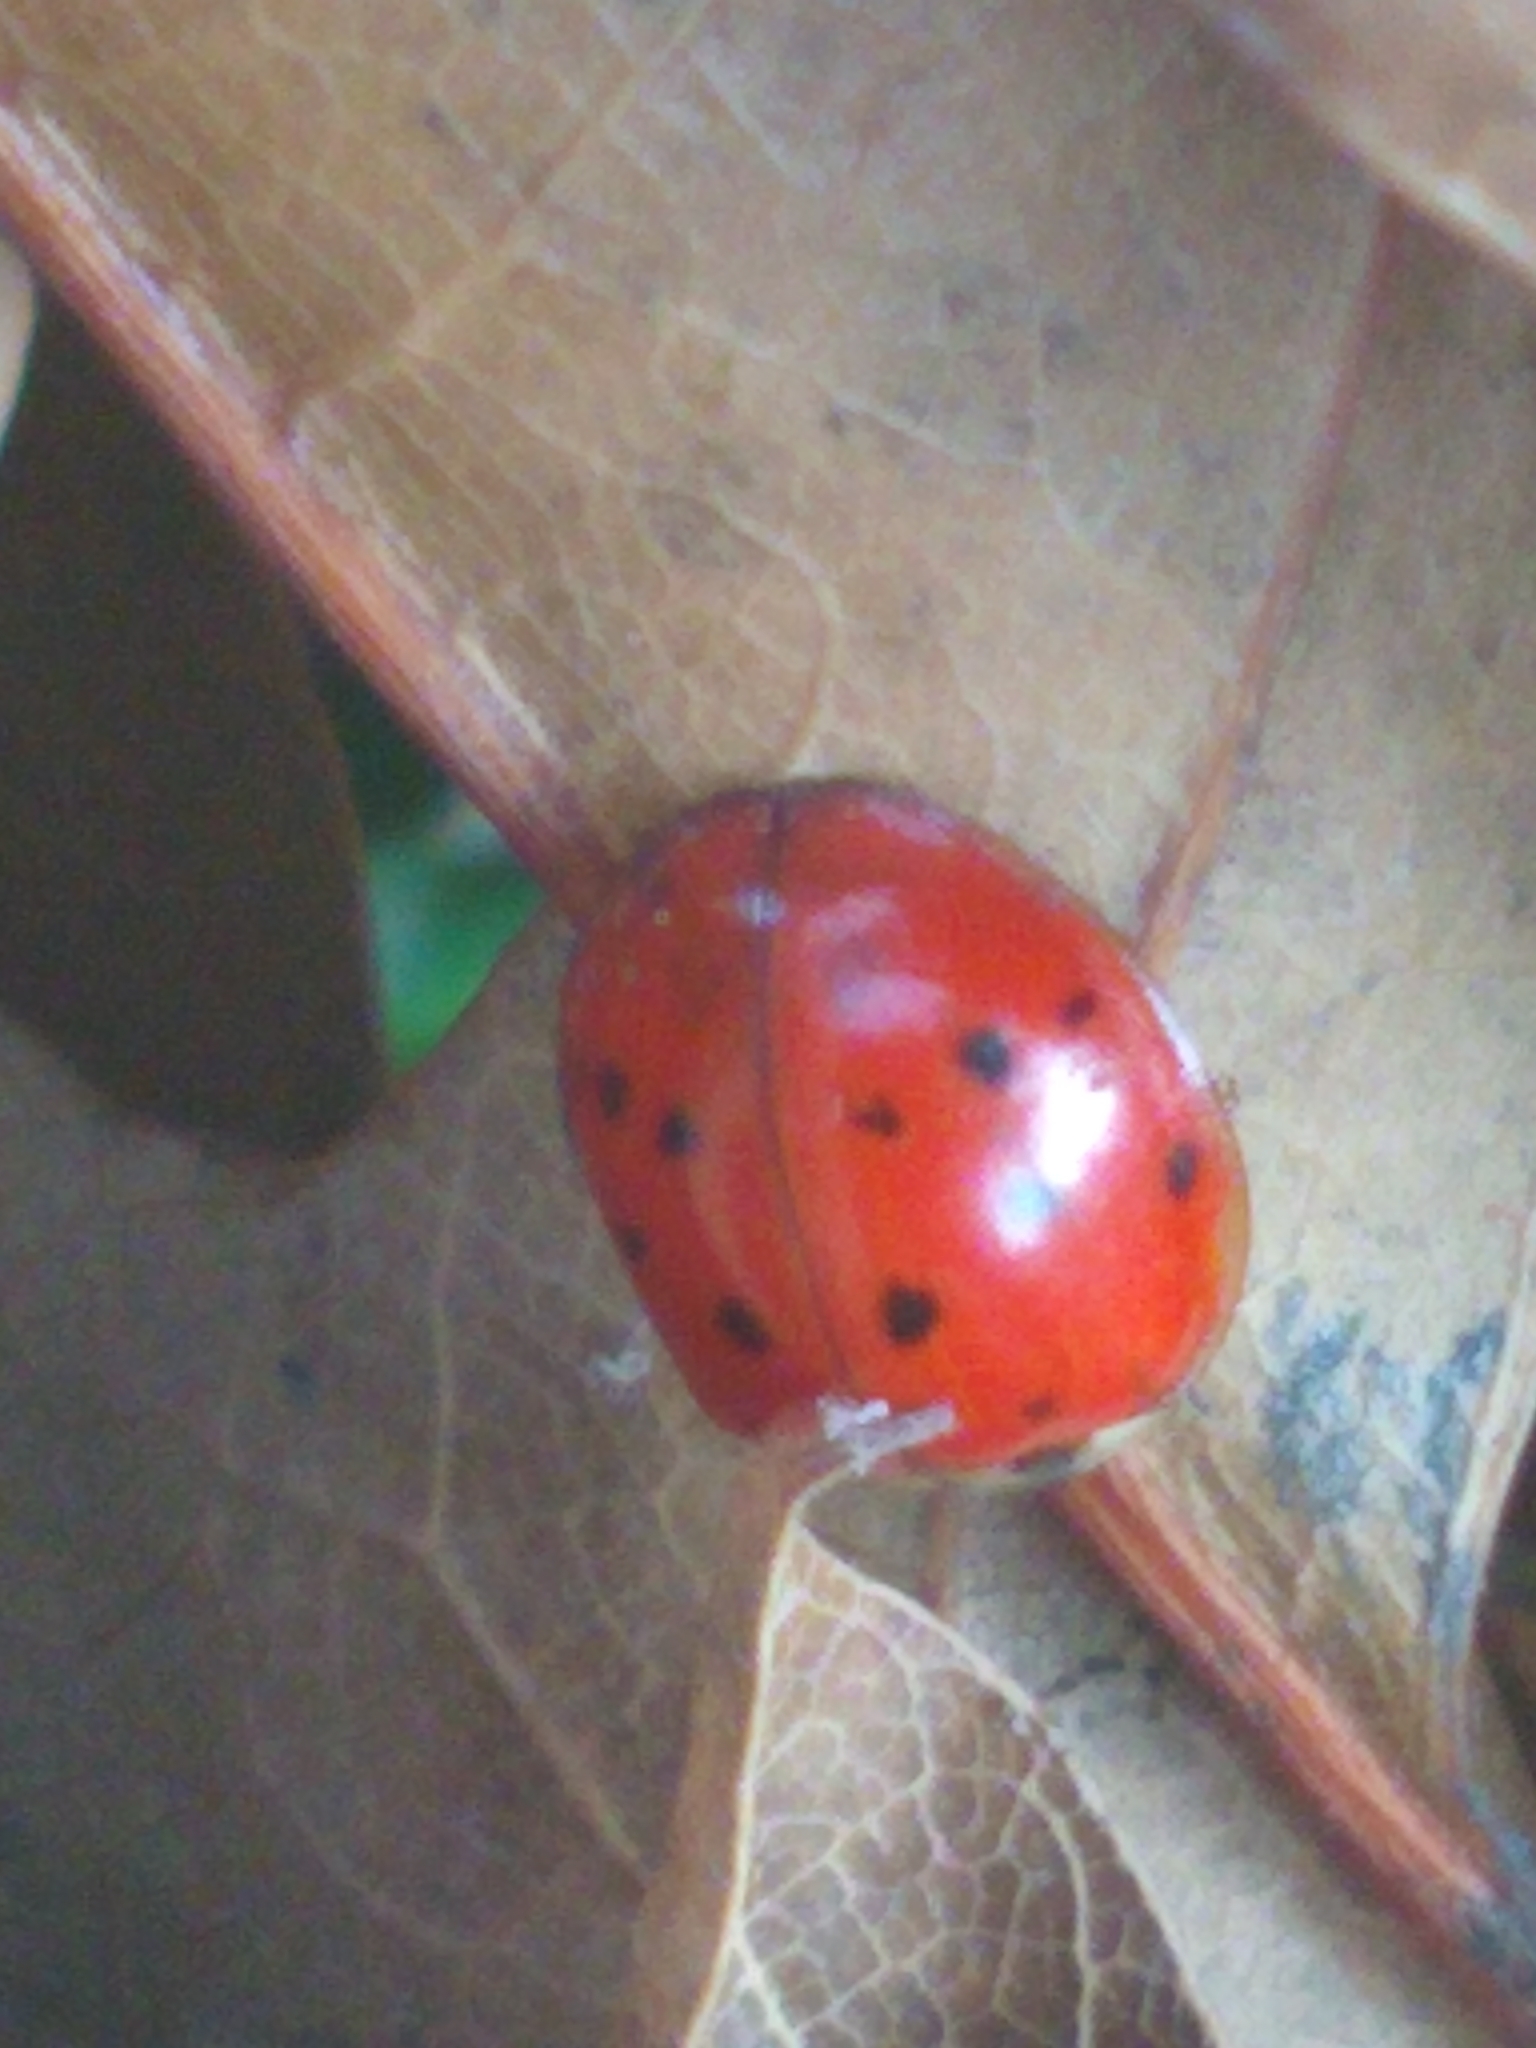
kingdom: Animalia
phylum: Arthropoda
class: Insecta
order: Coleoptera
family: Coccinellidae
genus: Harmonia
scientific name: Harmonia axyridis
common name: Harlequin ladybird
